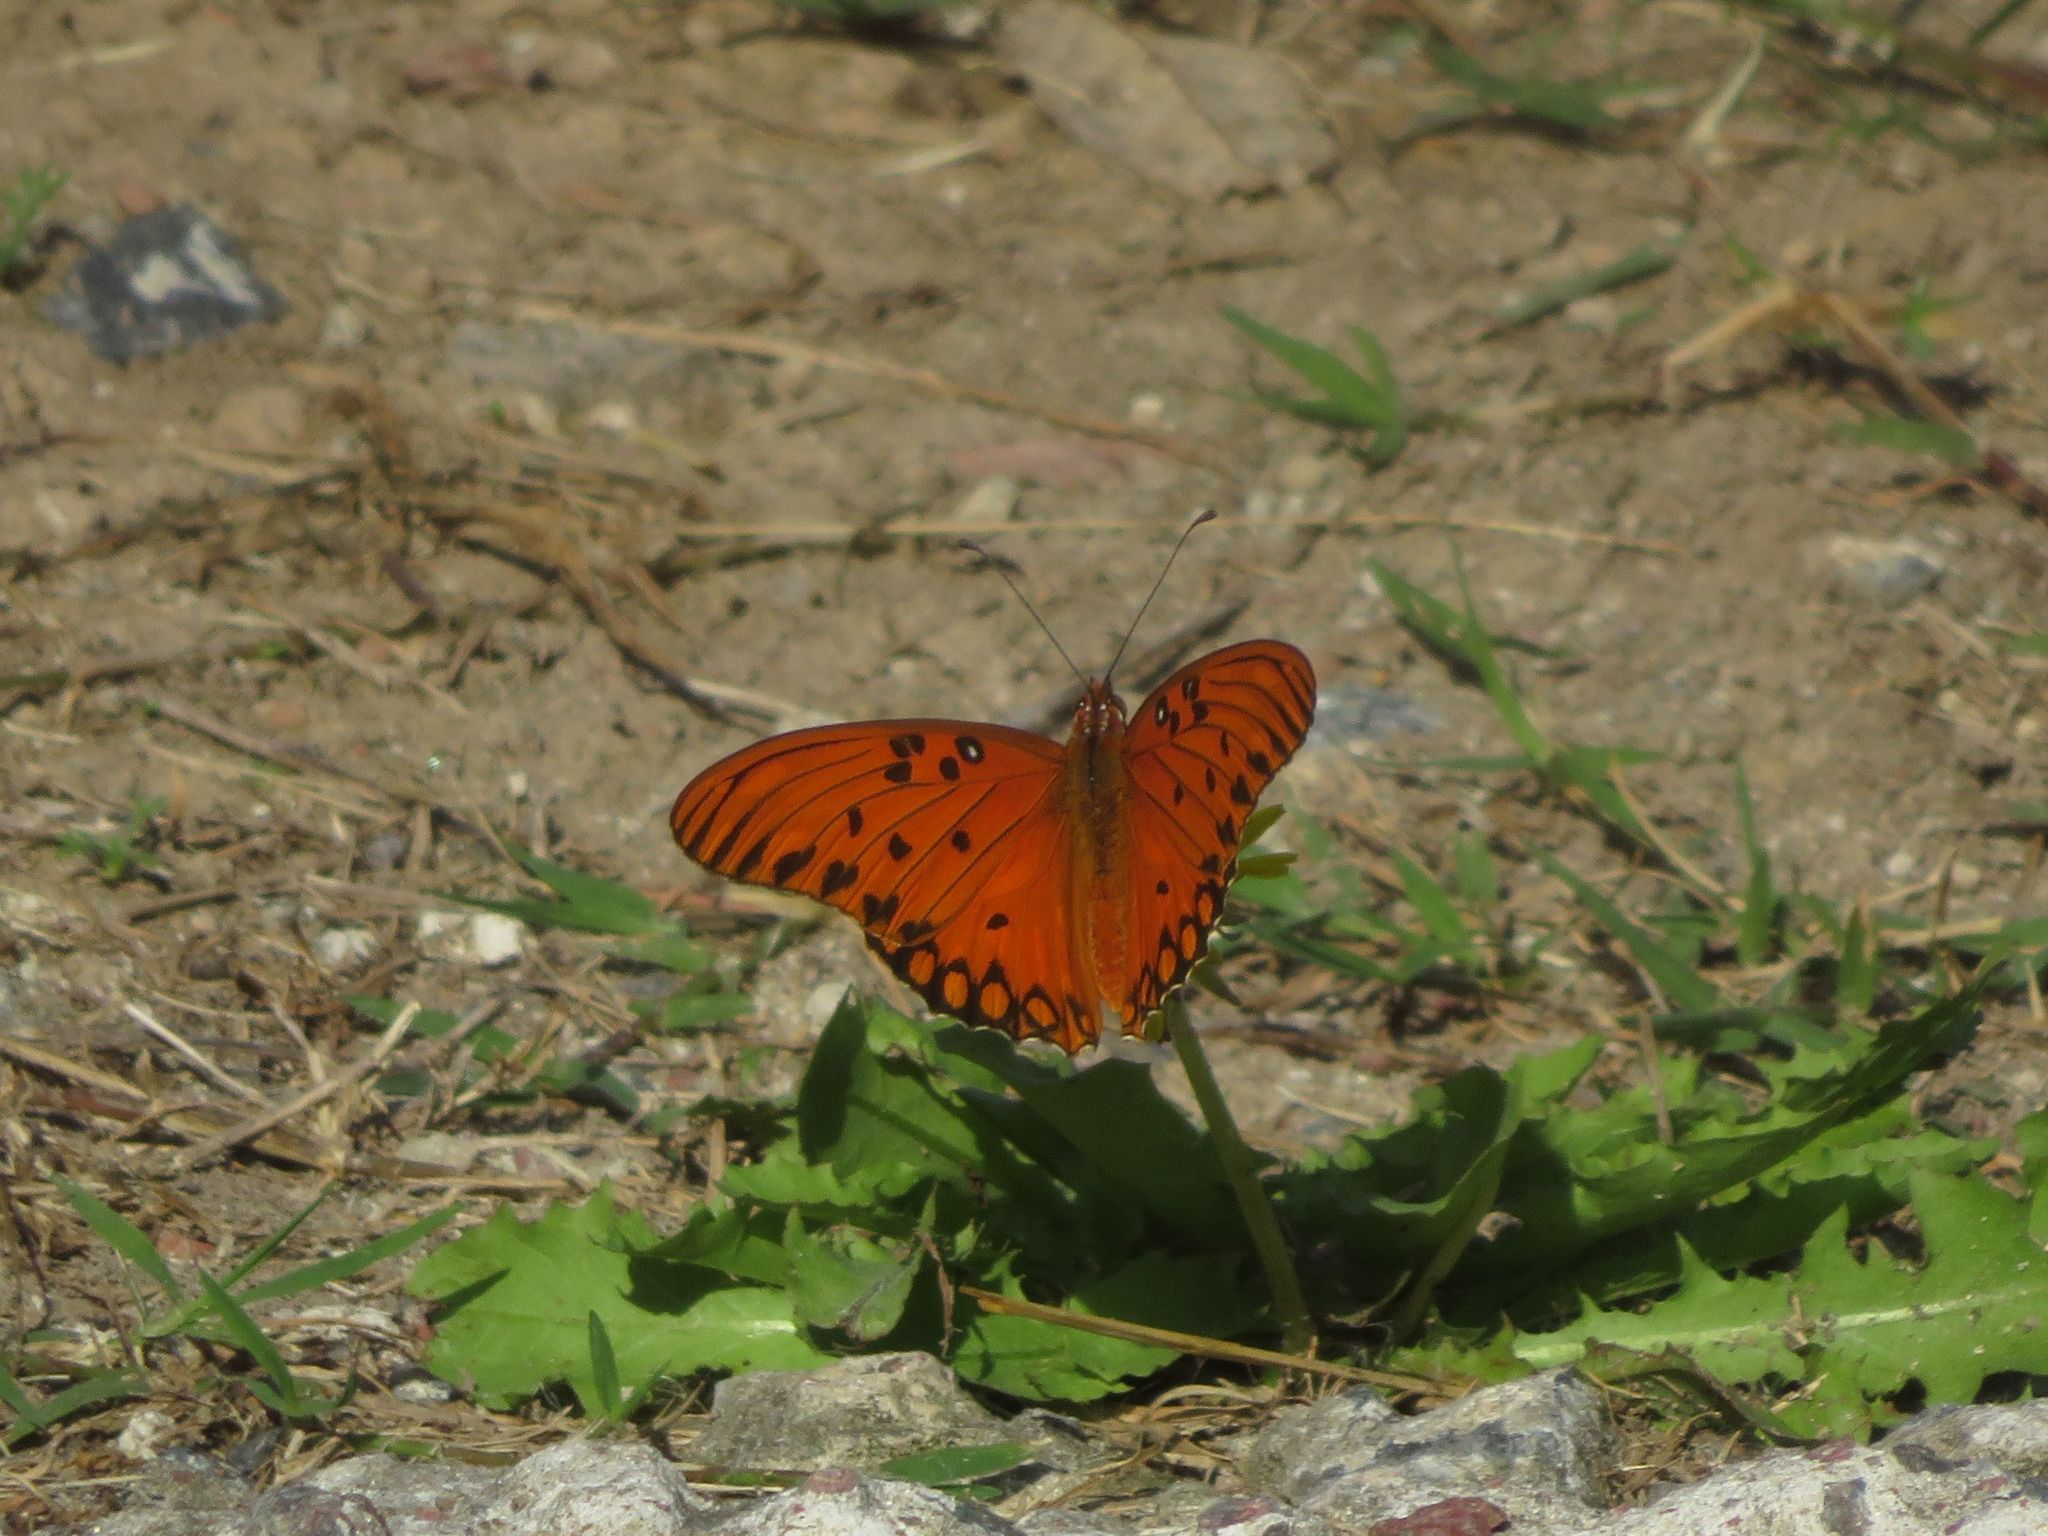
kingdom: Animalia
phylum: Arthropoda
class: Insecta
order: Lepidoptera
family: Nymphalidae
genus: Dione
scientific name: Dione vanillae
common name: Gulf fritillary
